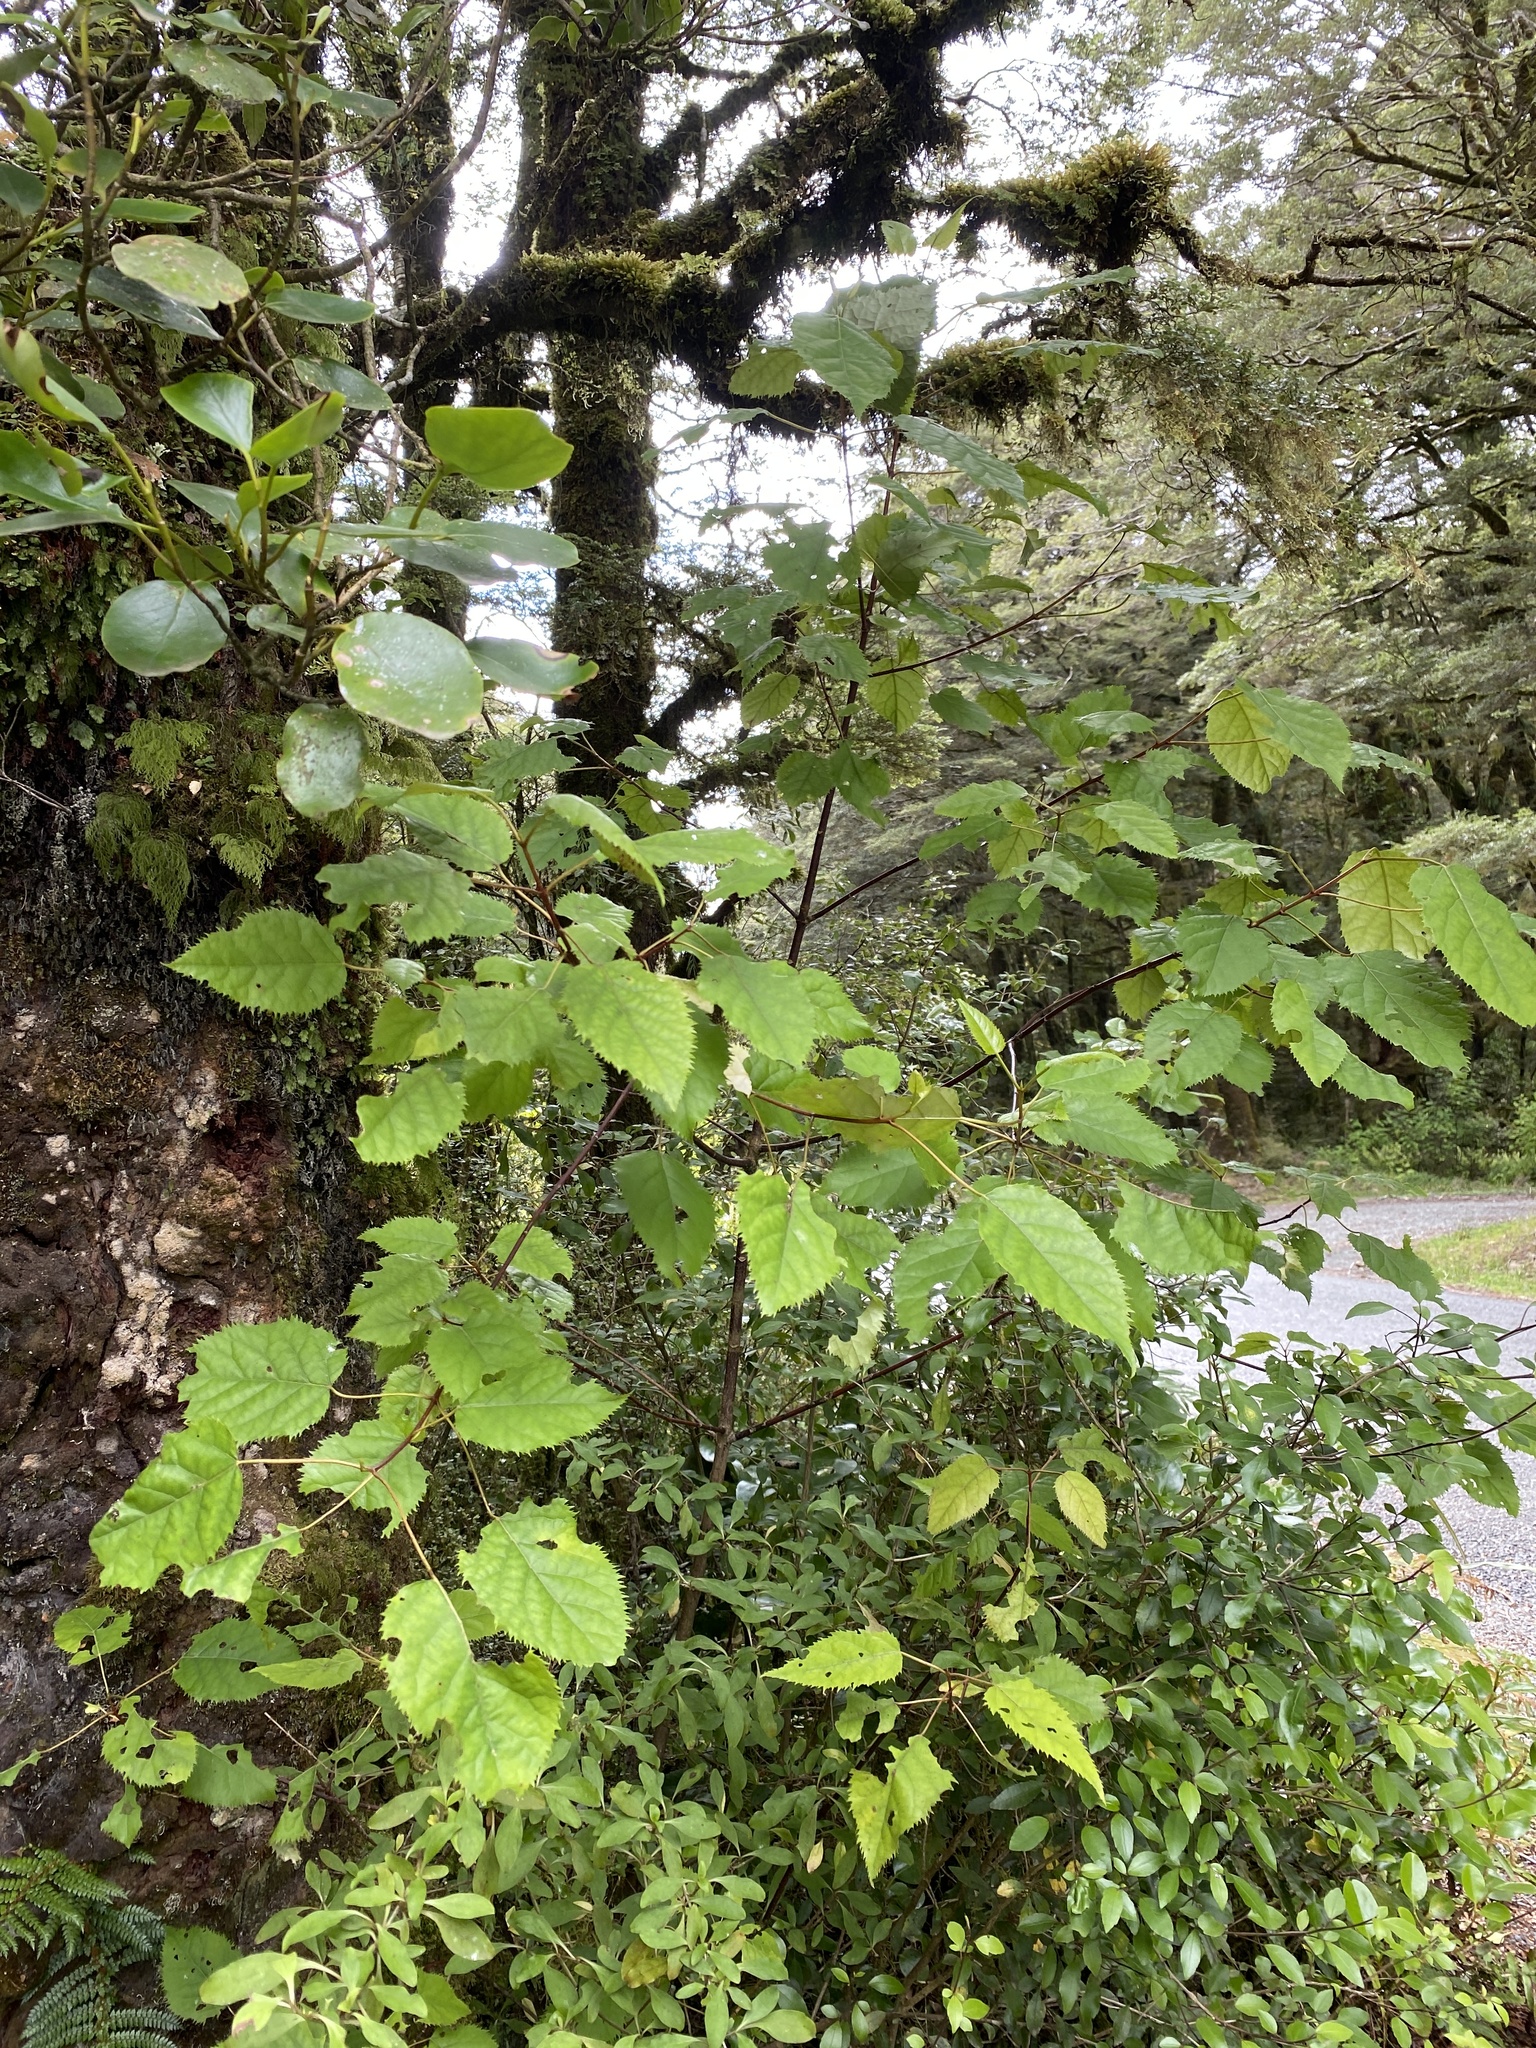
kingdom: Plantae
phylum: Tracheophyta
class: Magnoliopsida
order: Oxalidales
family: Elaeocarpaceae
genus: Aristotelia
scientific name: Aristotelia serrata
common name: New zealand wineberry
